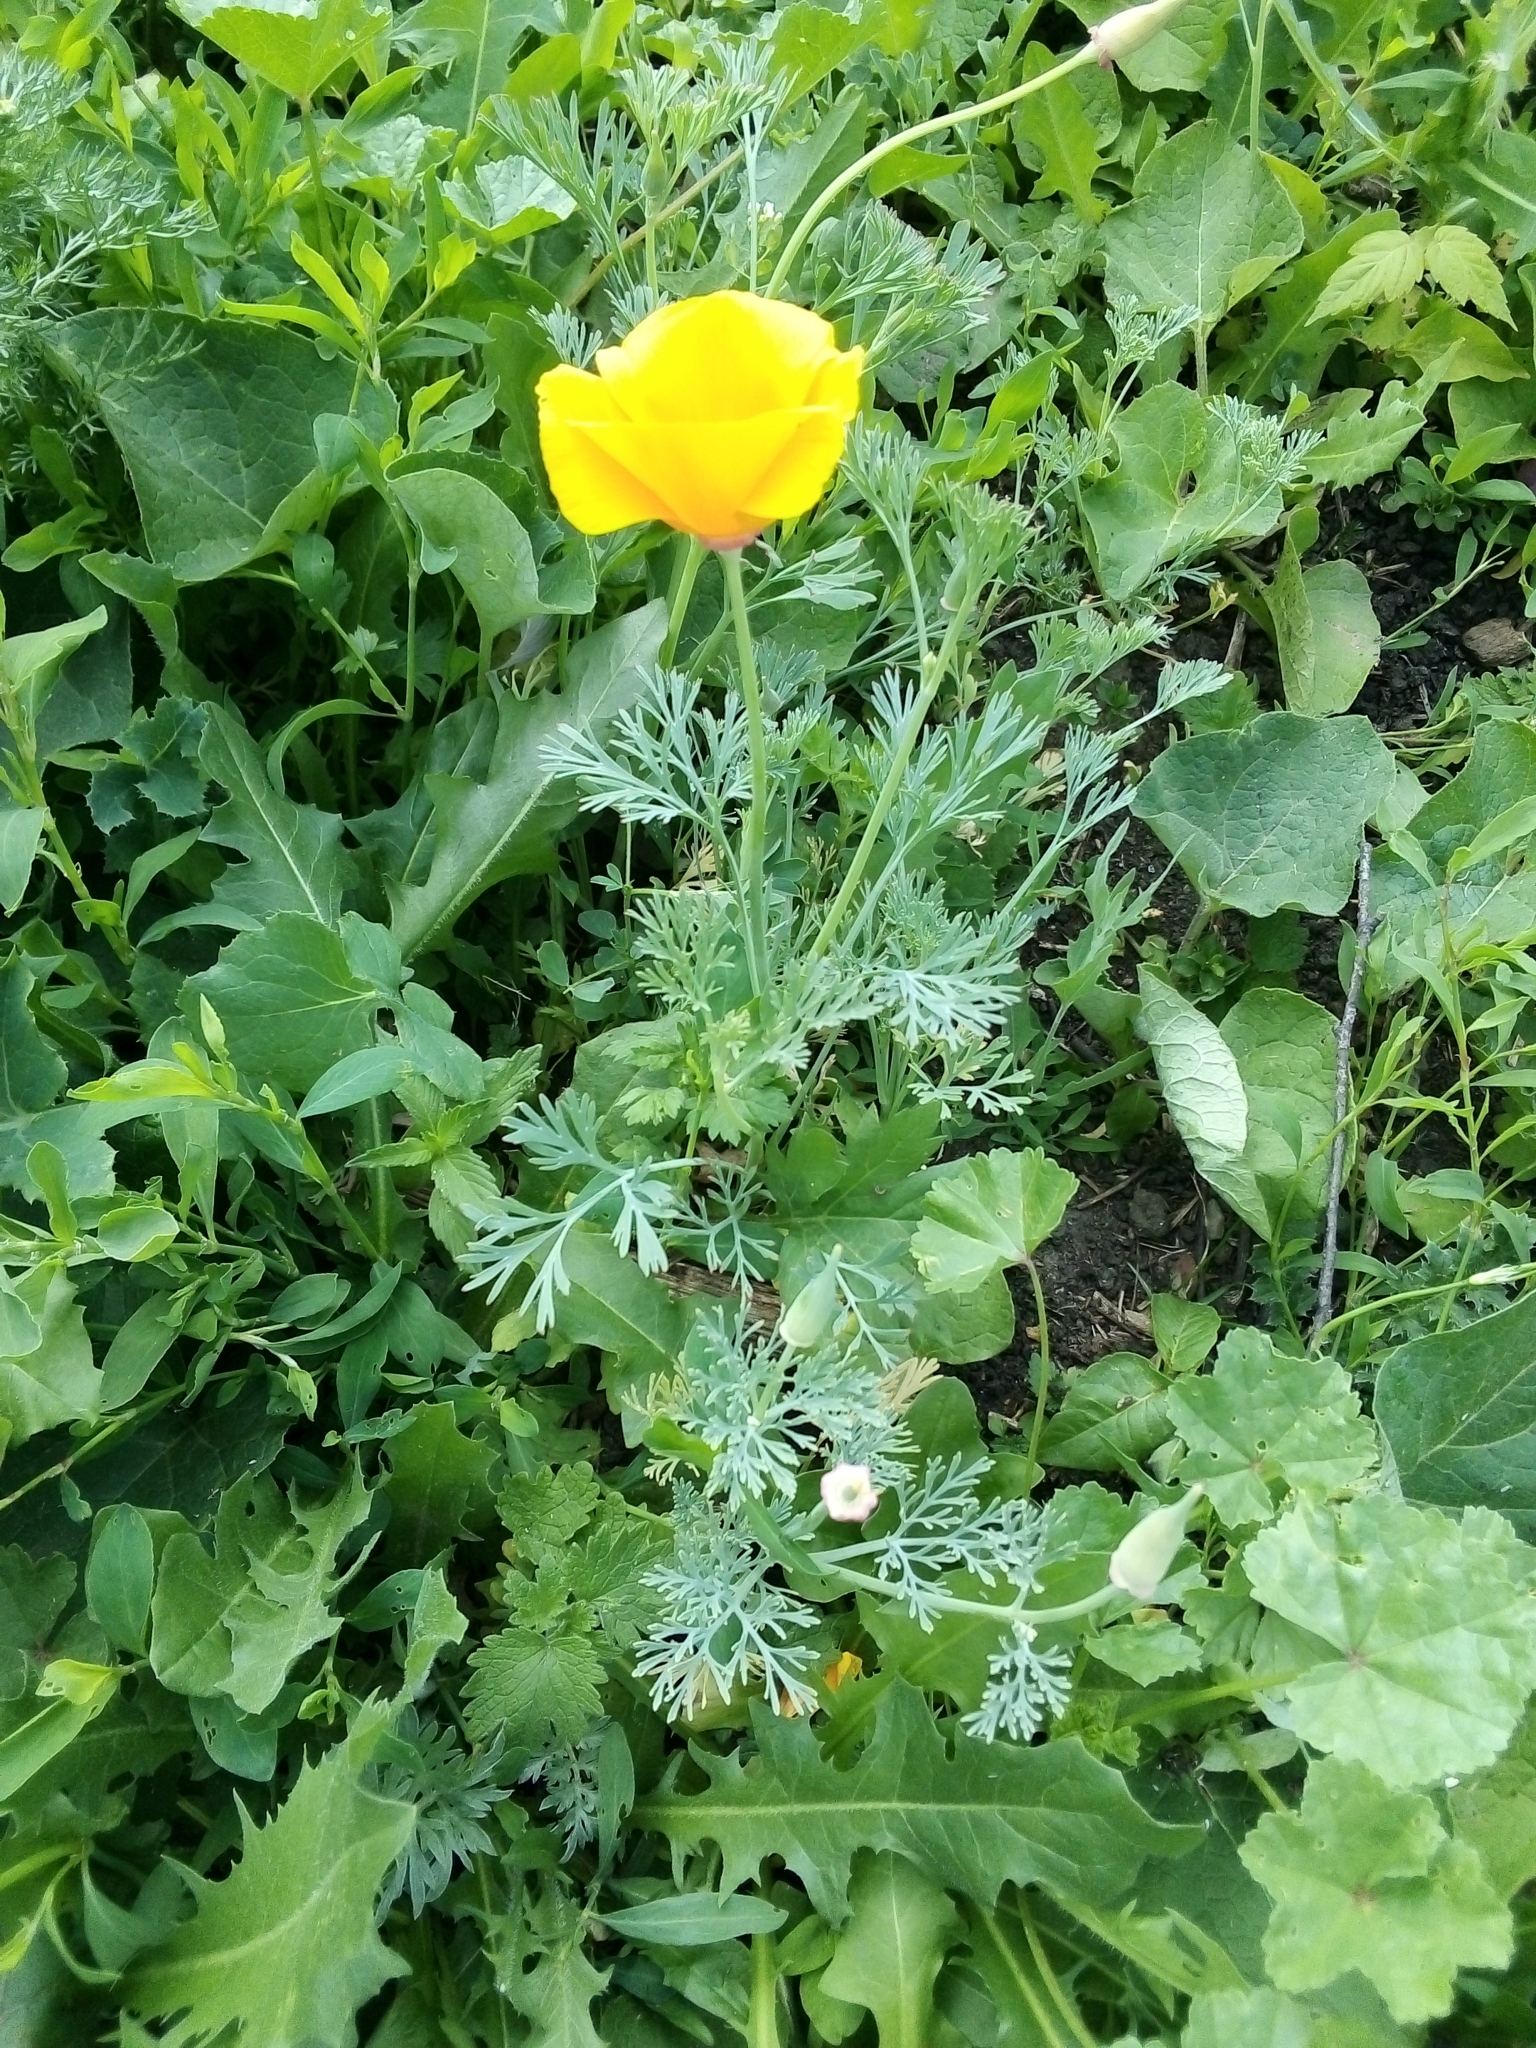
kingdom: Plantae
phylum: Tracheophyta
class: Magnoliopsida
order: Ranunculales
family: Papaveraceae
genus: Eschscholzia
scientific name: Eschscholzia californica
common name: California poppy
